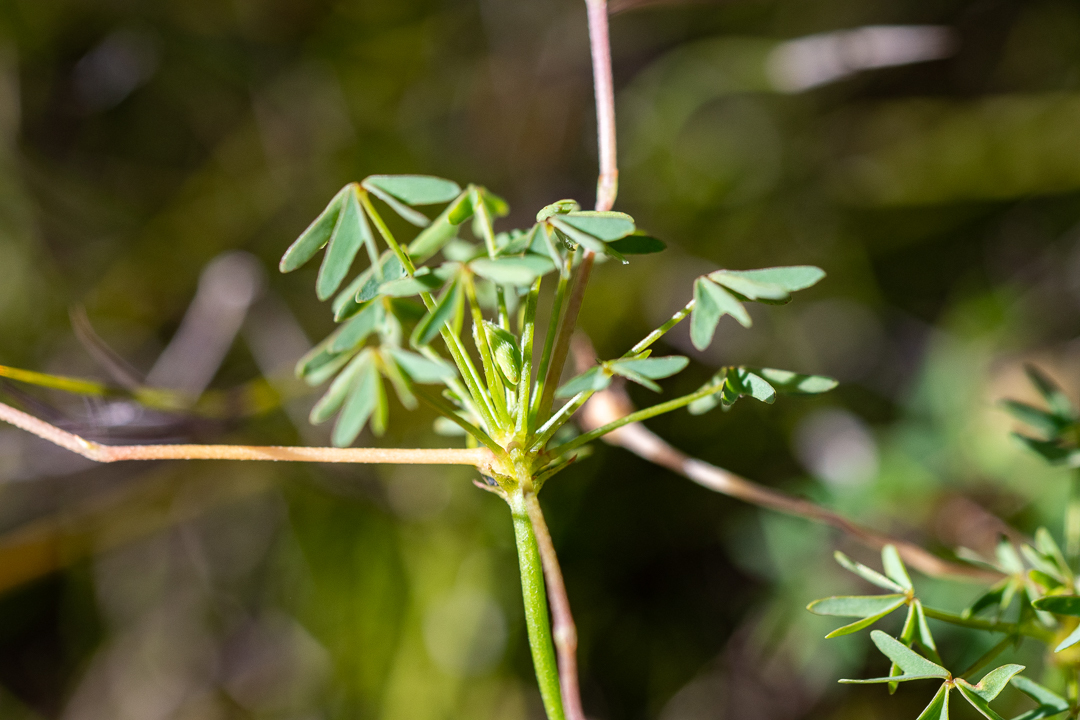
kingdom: Plantae
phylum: Tracheophyta
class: Magnoliopsida
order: Oxalidales
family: Oxalidaceae
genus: Oxalis
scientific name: Oxalis bifida
